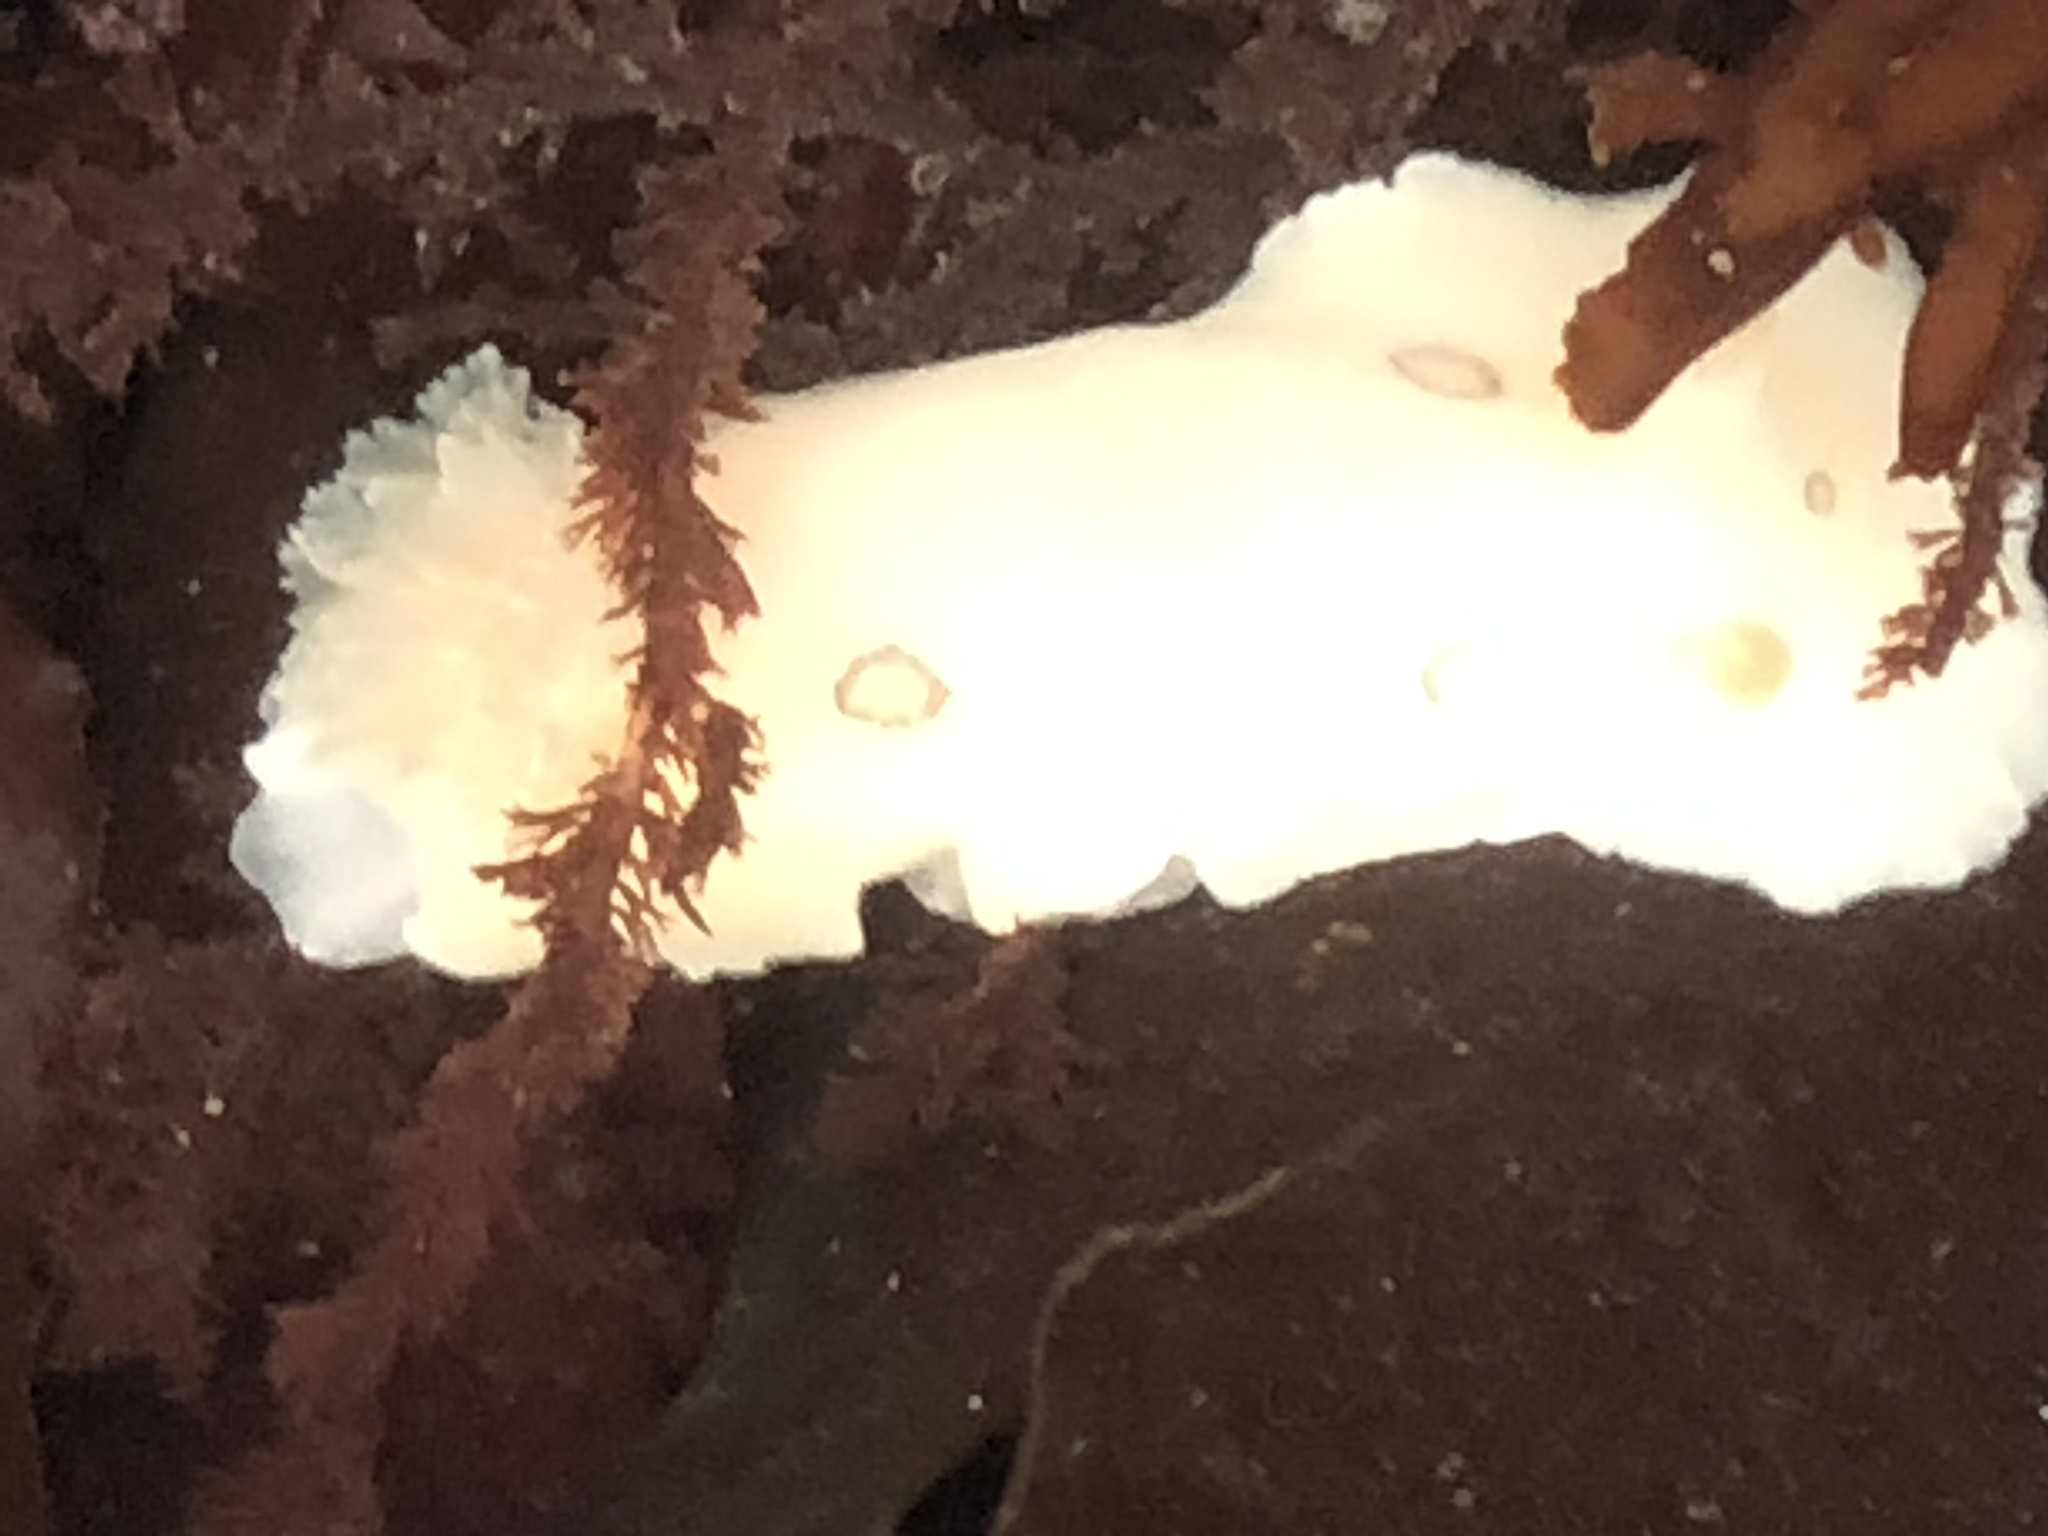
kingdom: Animalia
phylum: Mollusca
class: Gastropoda
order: Nudibranchia
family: Discodorididae
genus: Diaulula
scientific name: Diaulula sandiegensis
